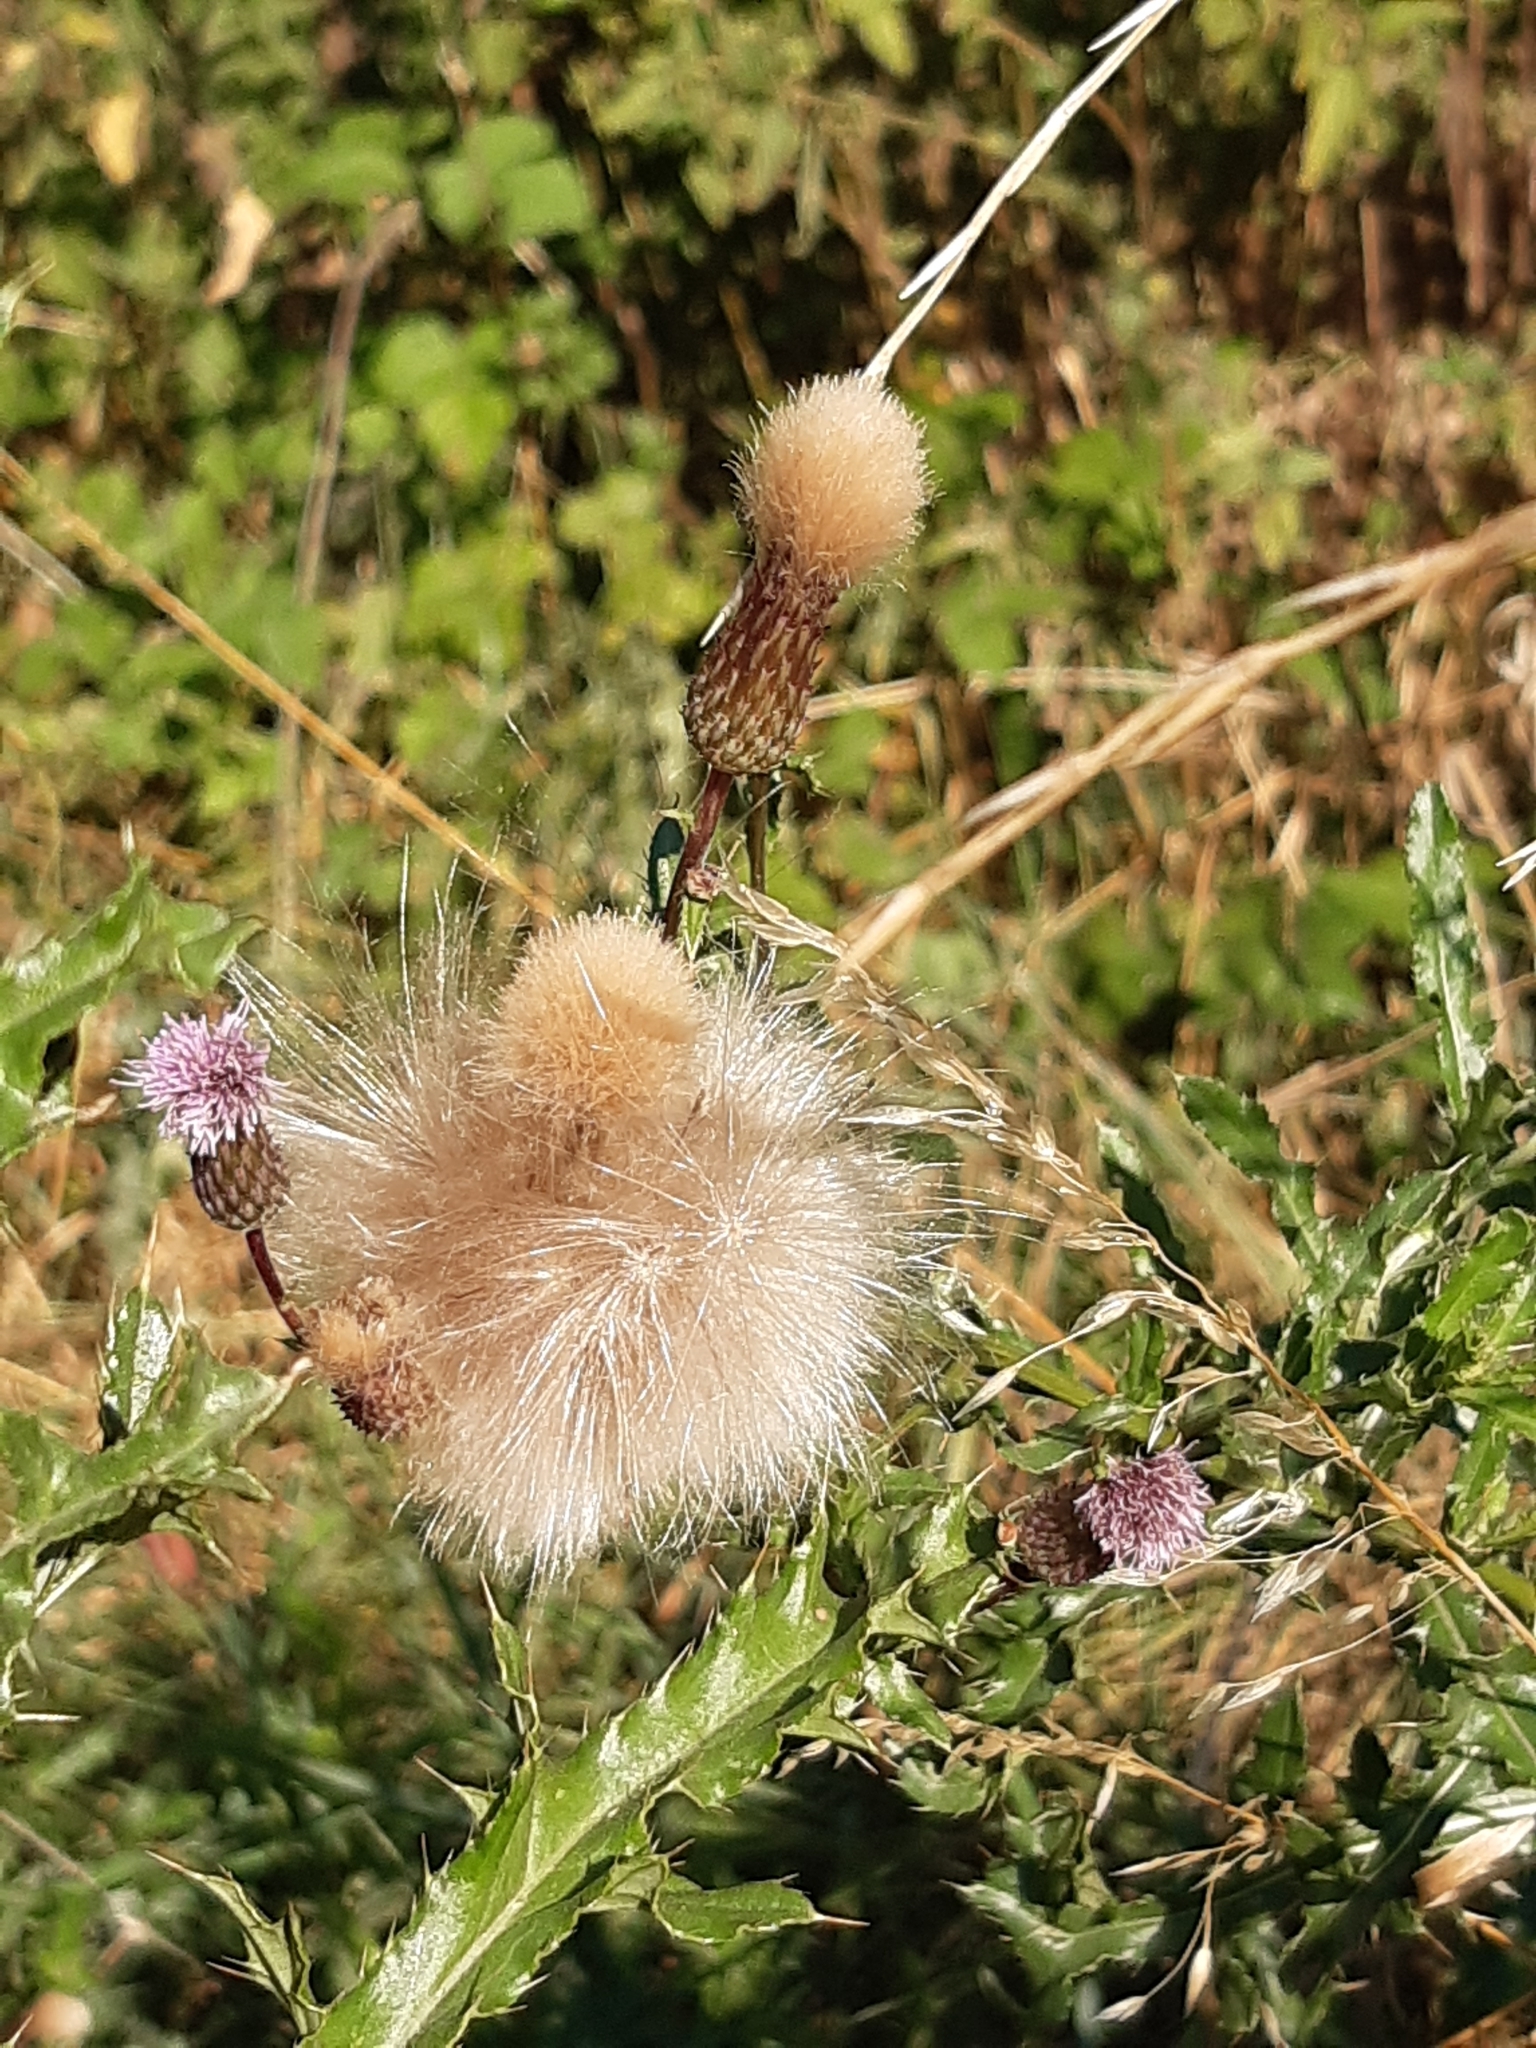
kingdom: Plantae
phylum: Tracheophyta
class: Magnoliopsida
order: Asterales
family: Asteraceae
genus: Cirsium
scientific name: Cirsium arvense
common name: Creeping thistle
